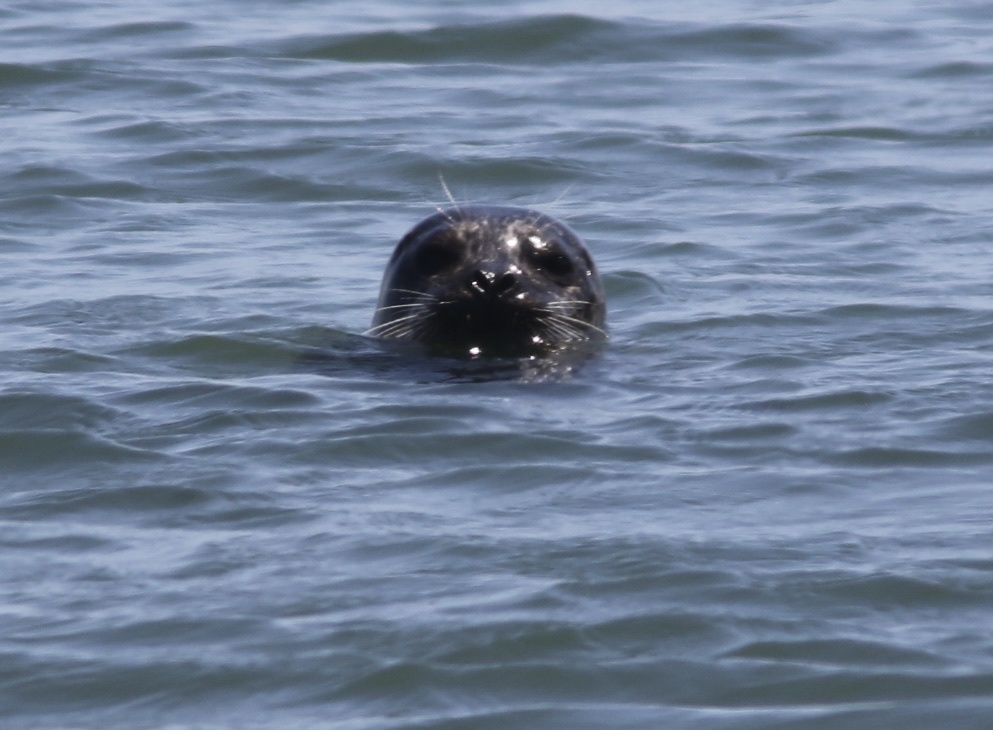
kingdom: Animalia
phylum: Chordata
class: Mammalia
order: Carnivora
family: Phocidae
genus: Phoca
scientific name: Phoca vitulina
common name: Harbor seal
